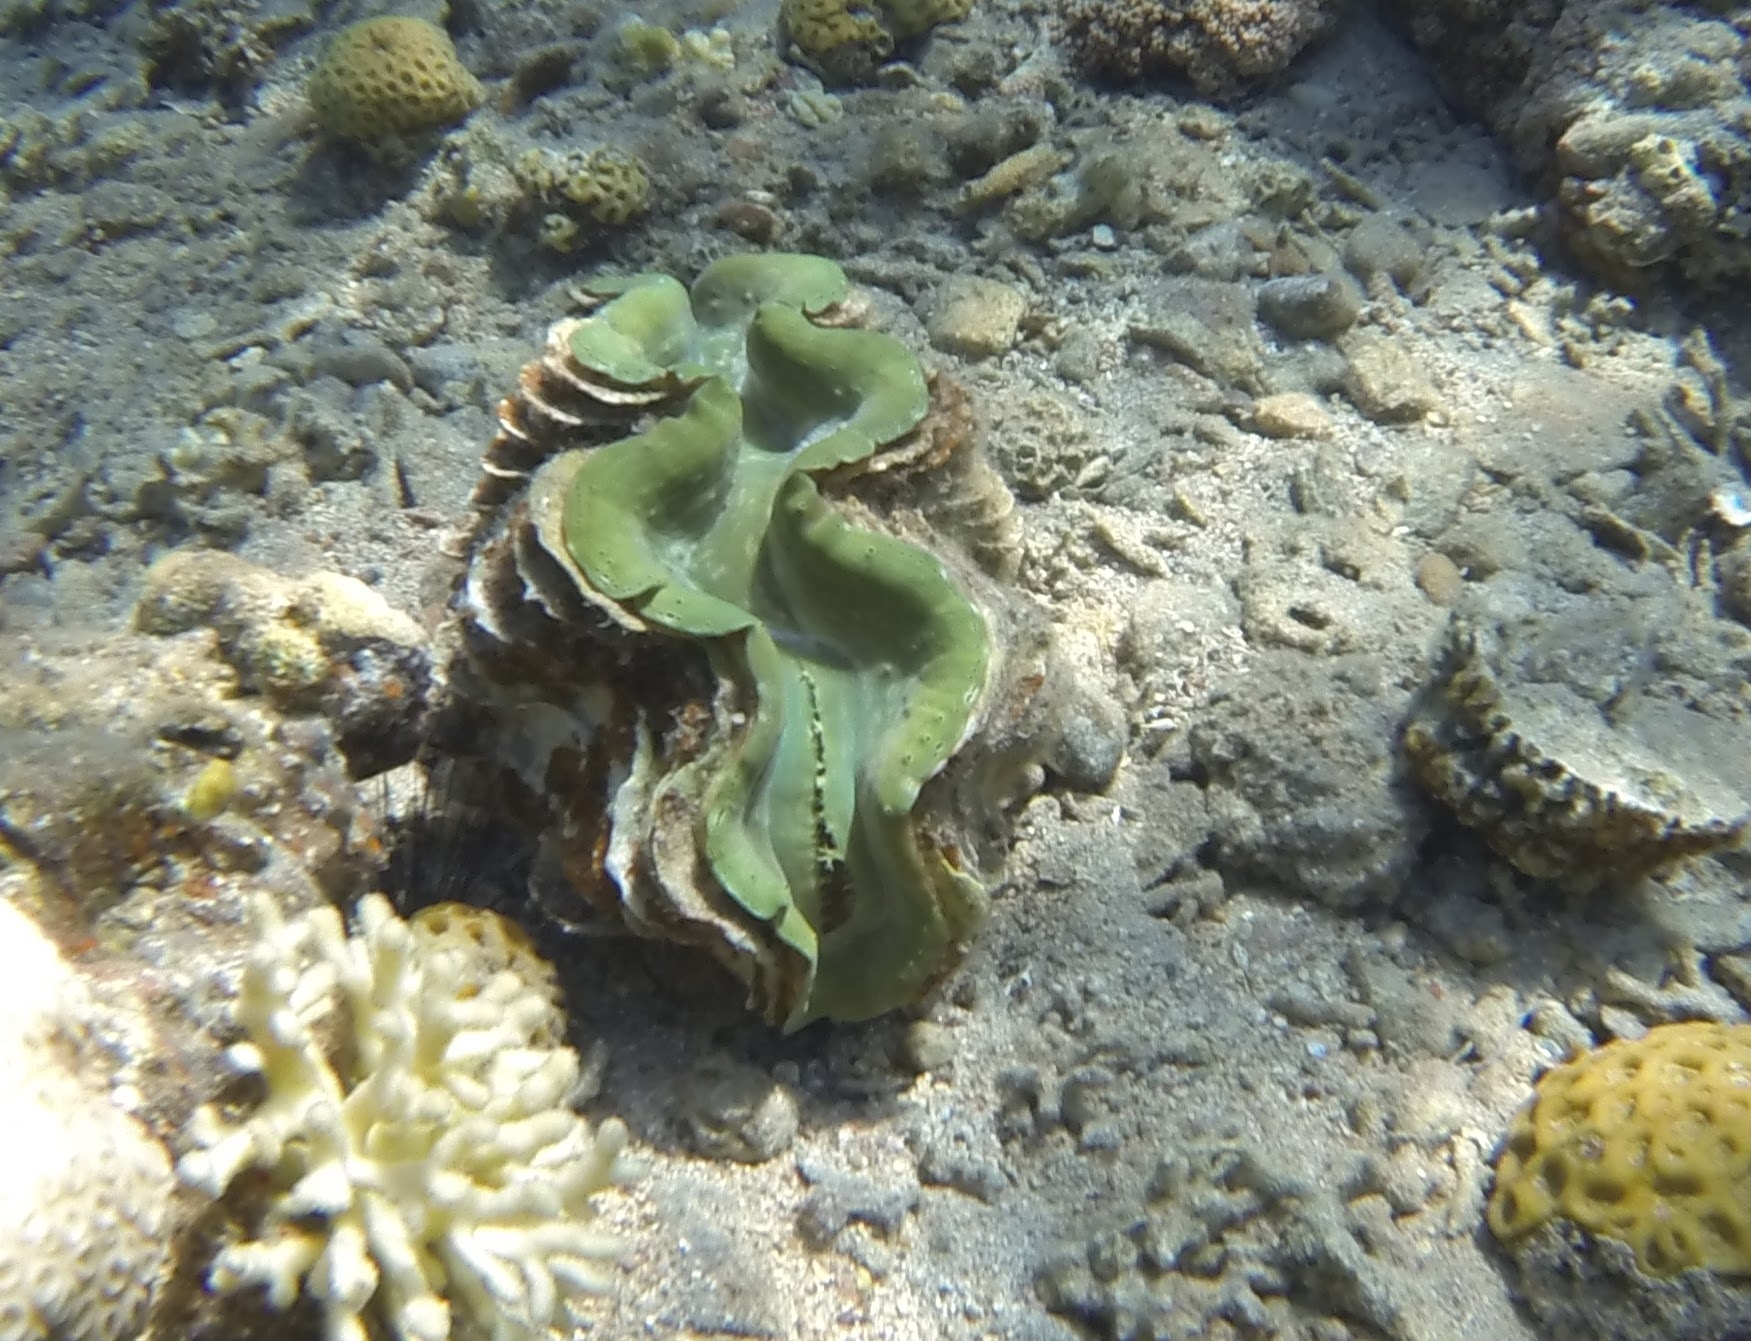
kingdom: Animalia
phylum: Mollusca
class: Bivalvia
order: Cardiida
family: Cardiidae
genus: Tridacna
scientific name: Tridacna squamosa
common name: Fluted clam
